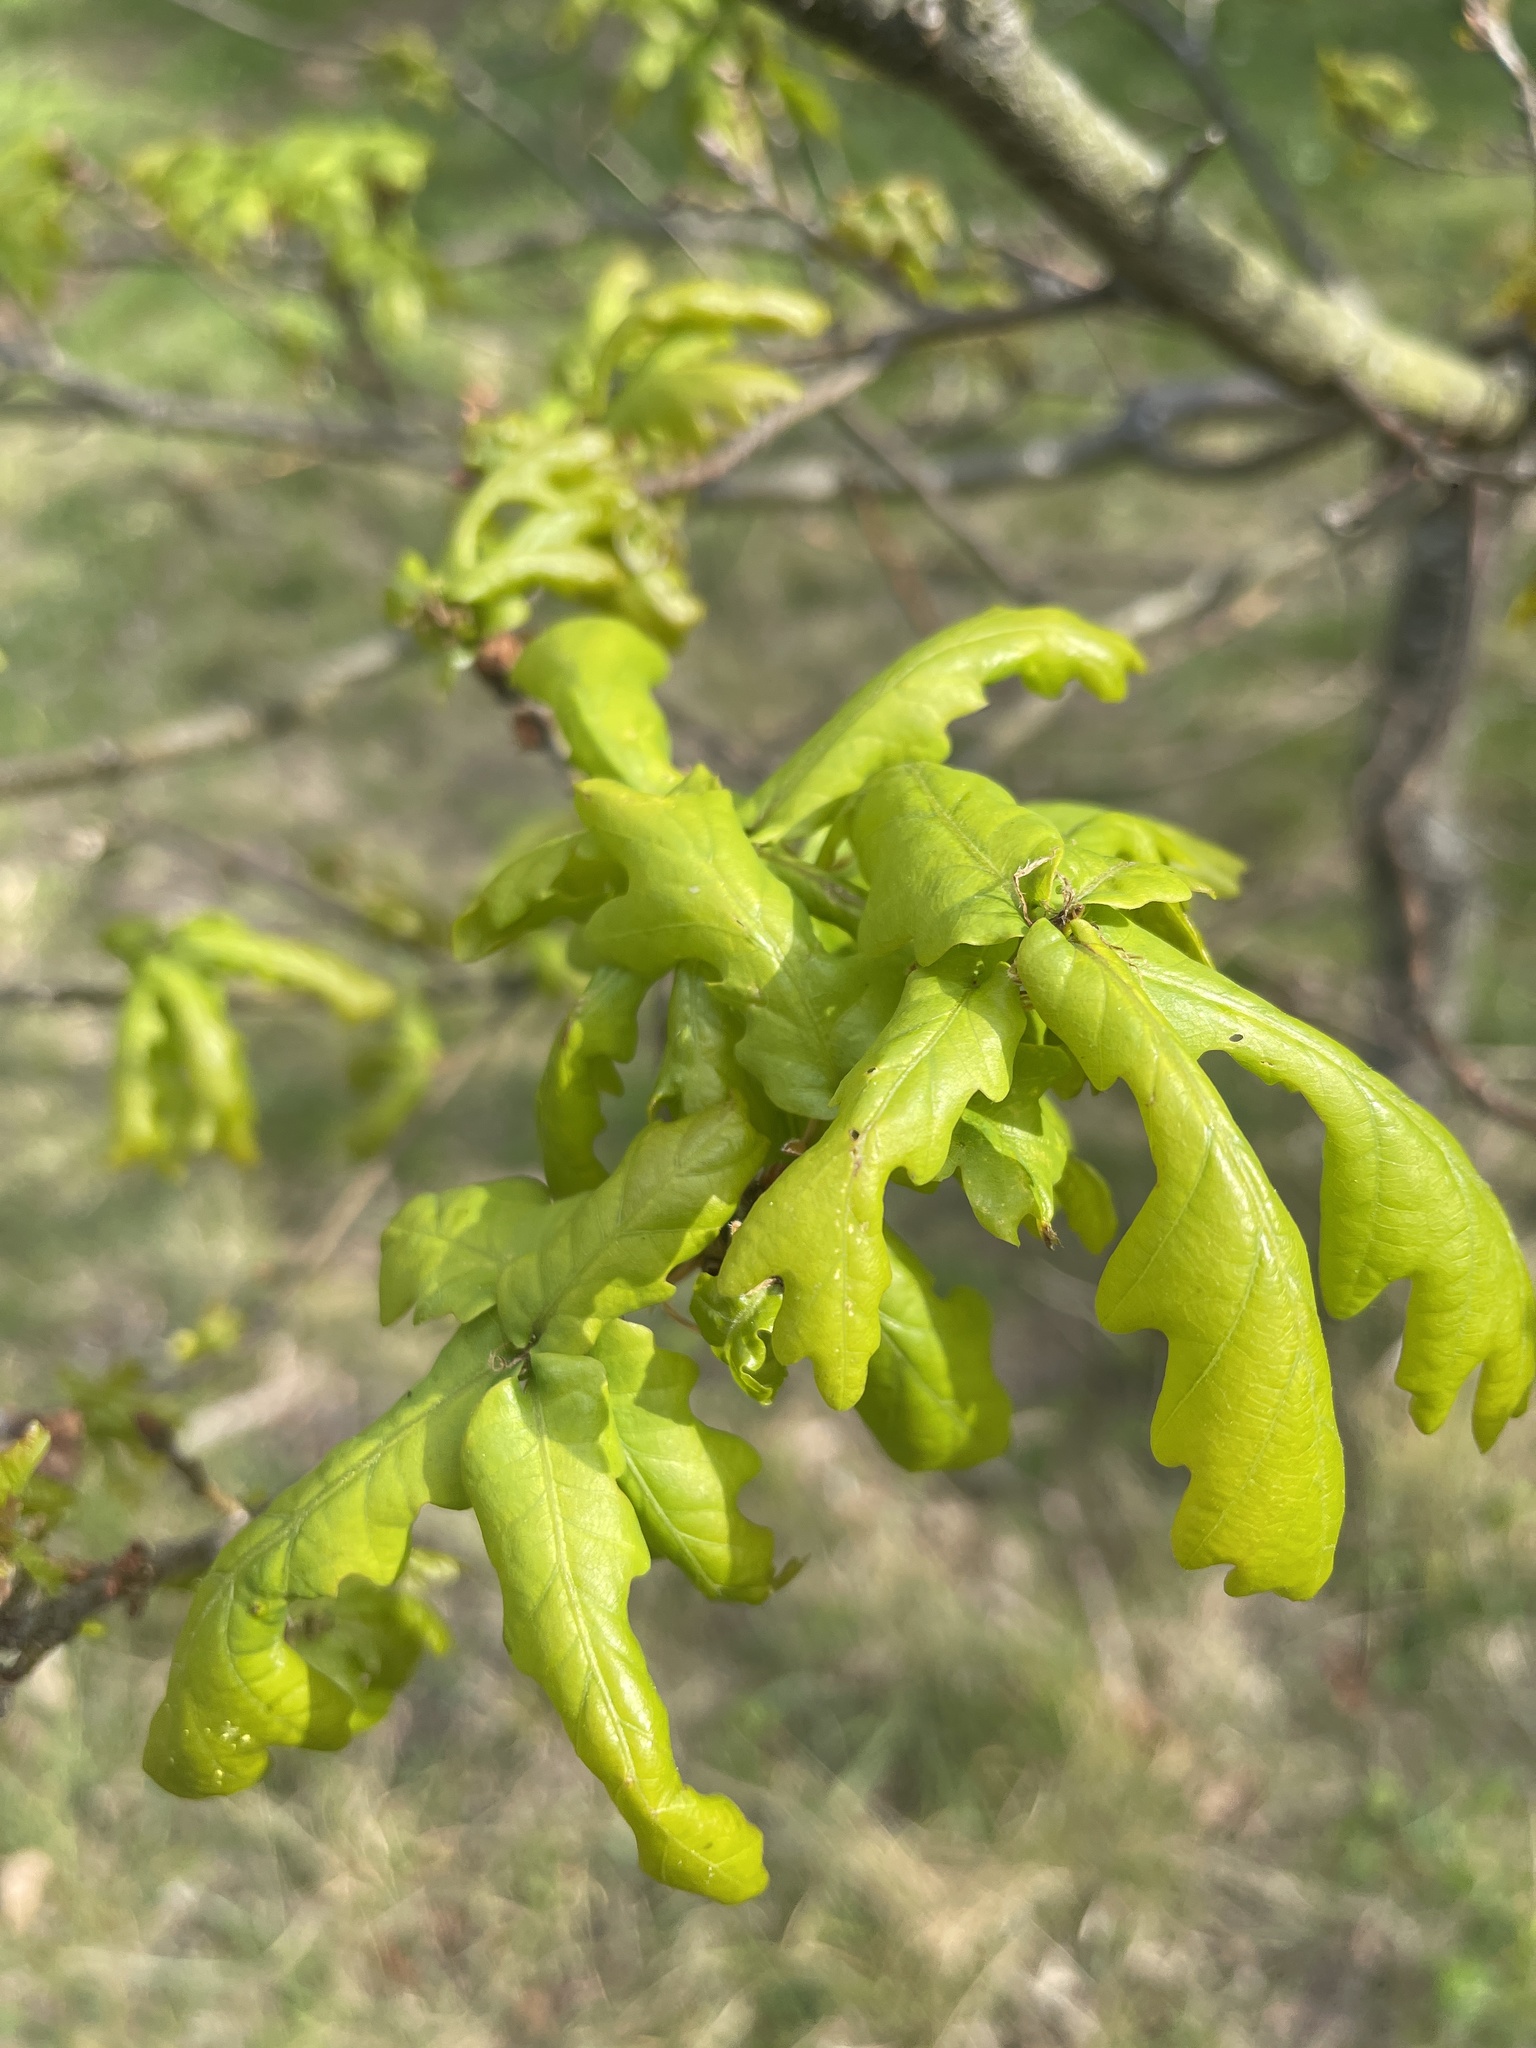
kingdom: Plantae
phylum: Tracheophyta
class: Magnoliopsida
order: Fagales
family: Fagaceae
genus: Quercus
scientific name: Quercus robur
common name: Pedunculate oak
